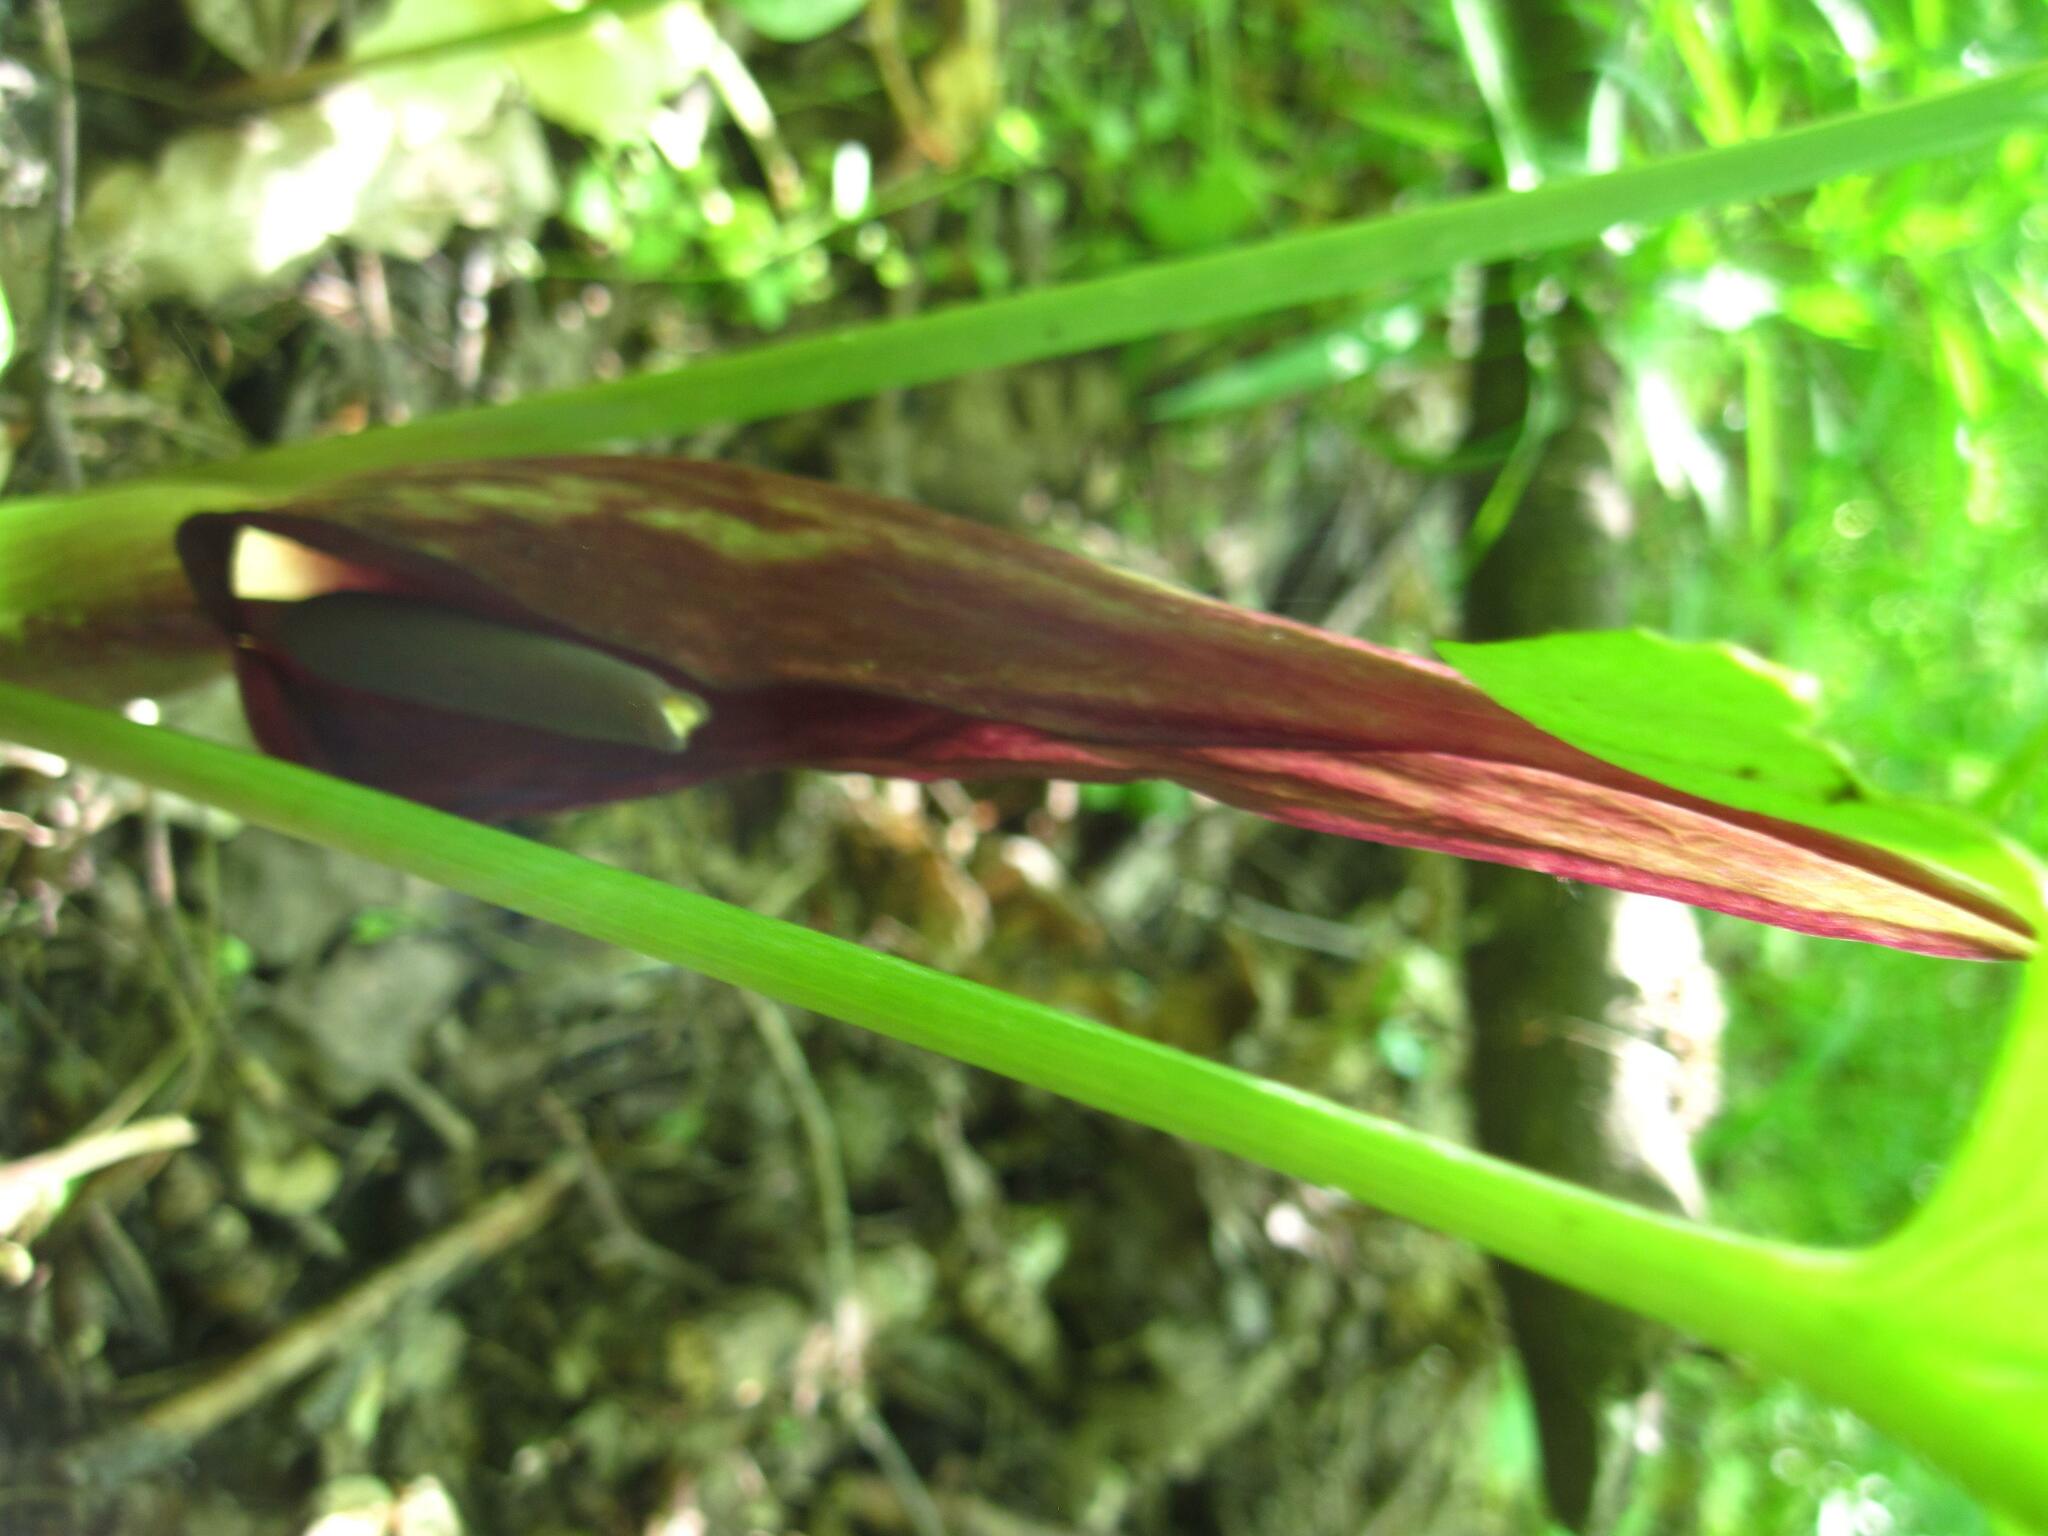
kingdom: Plantae
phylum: Tracheophyta
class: Liliopsida
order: Alismatales
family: Araceae
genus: Arum
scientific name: Arum orientale
